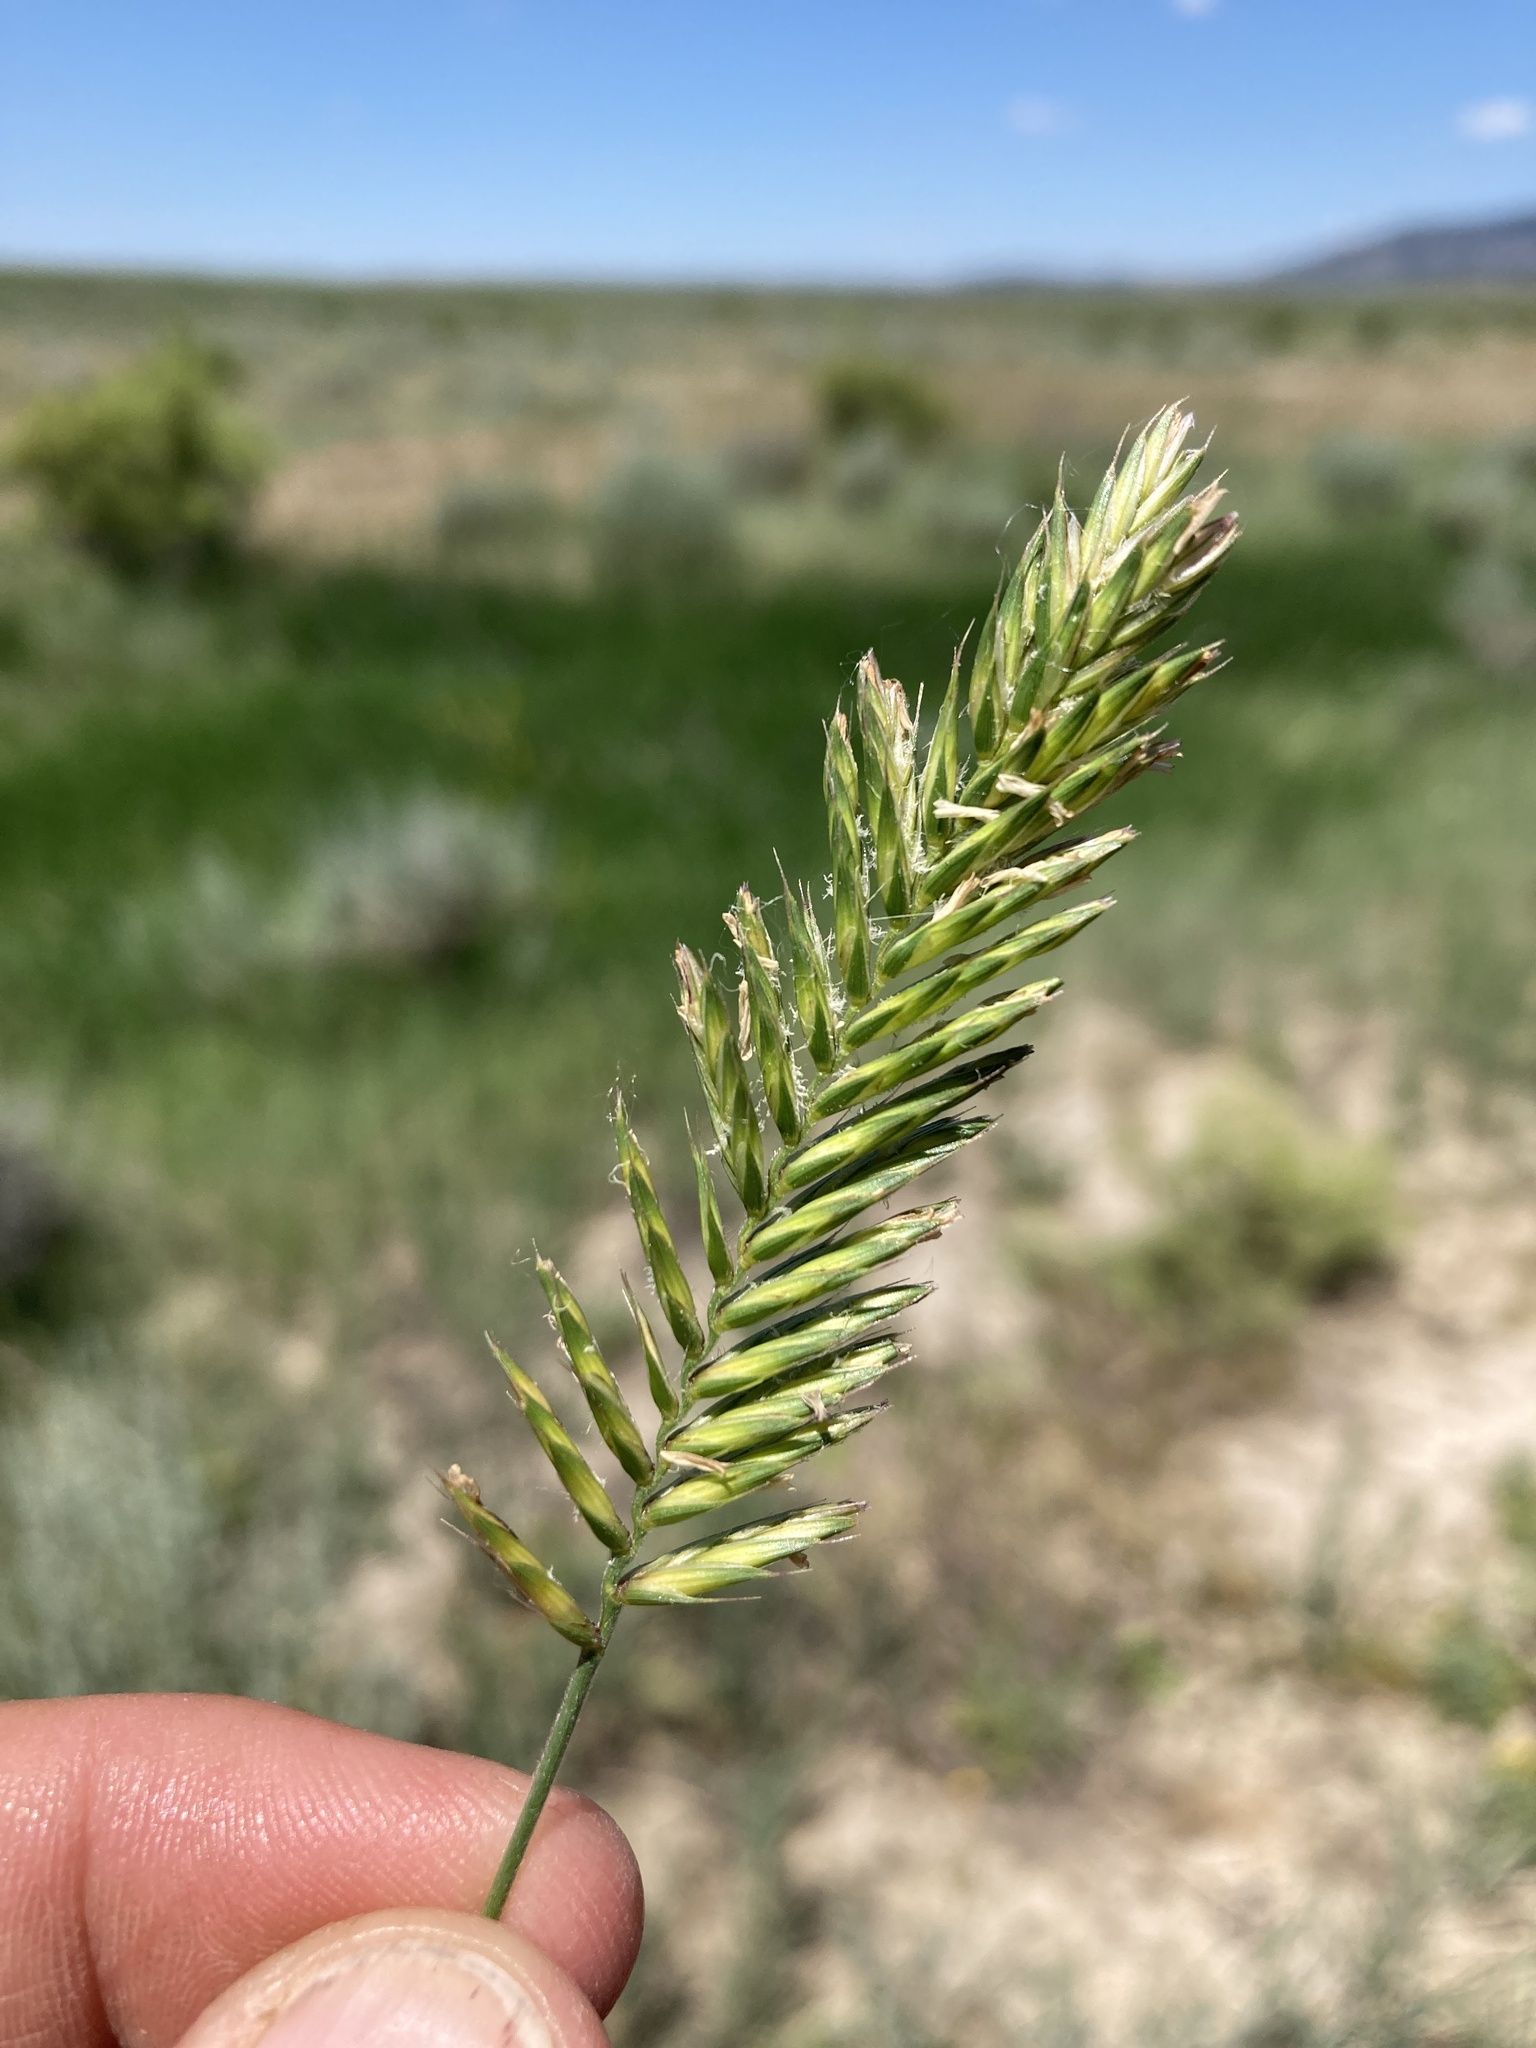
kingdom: Plantae
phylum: Tracheophyta
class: Liliopsida
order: Poales
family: Poaceae
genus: Agropyron
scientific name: Agropyron cristatum
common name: Crested wheatgrass
